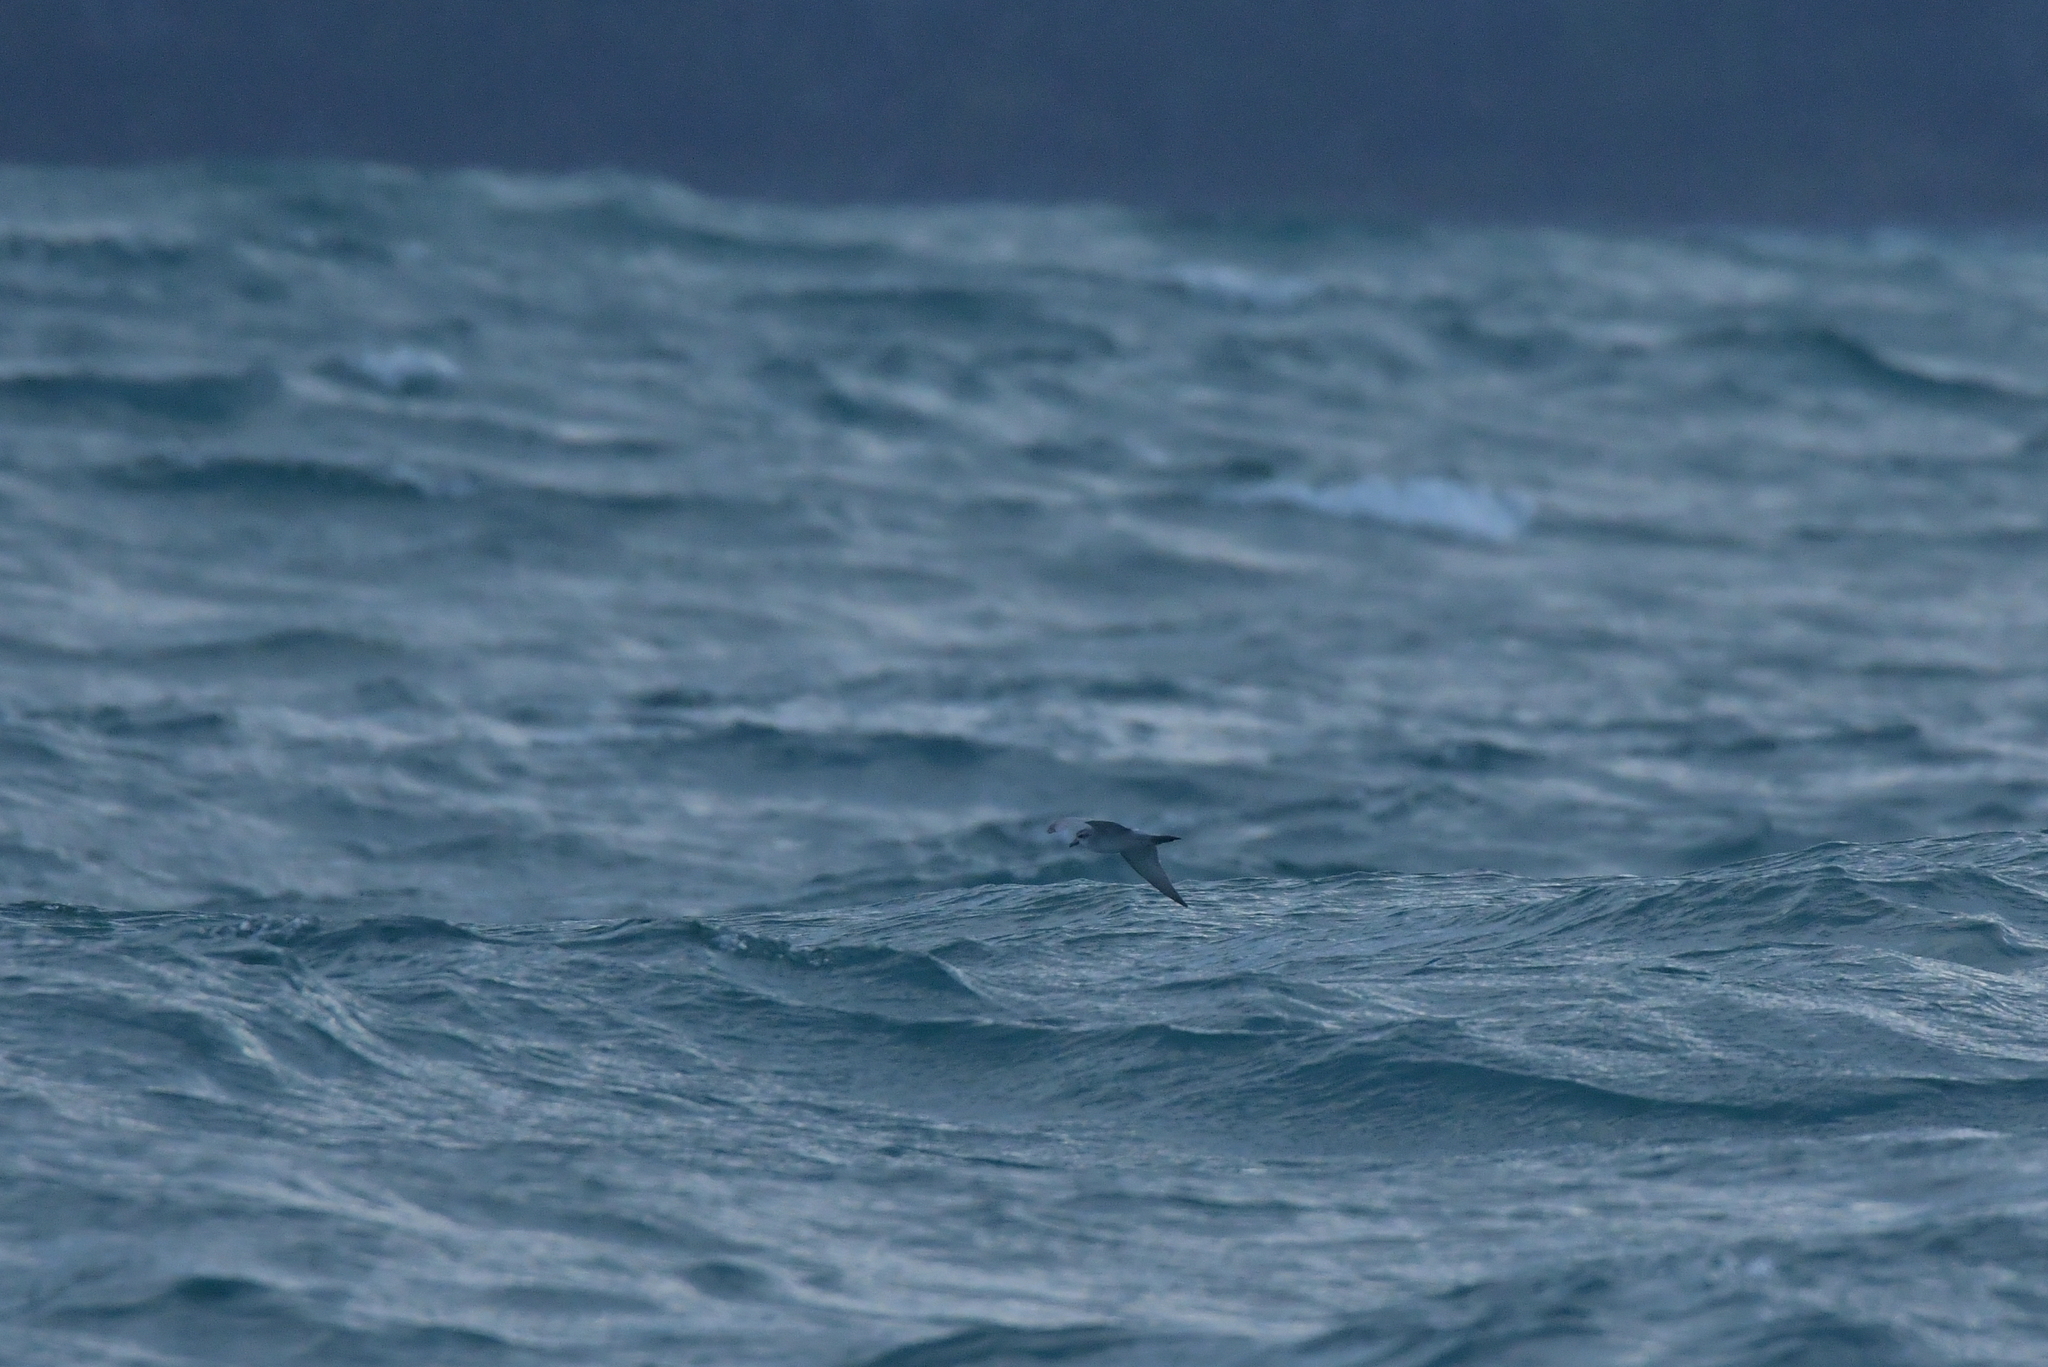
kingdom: Animalia
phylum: Chordata
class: Aves
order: Procellariiformes
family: Procellariidae
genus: Pachyptila
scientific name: Pachyptila turtur
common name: Fairy prion
